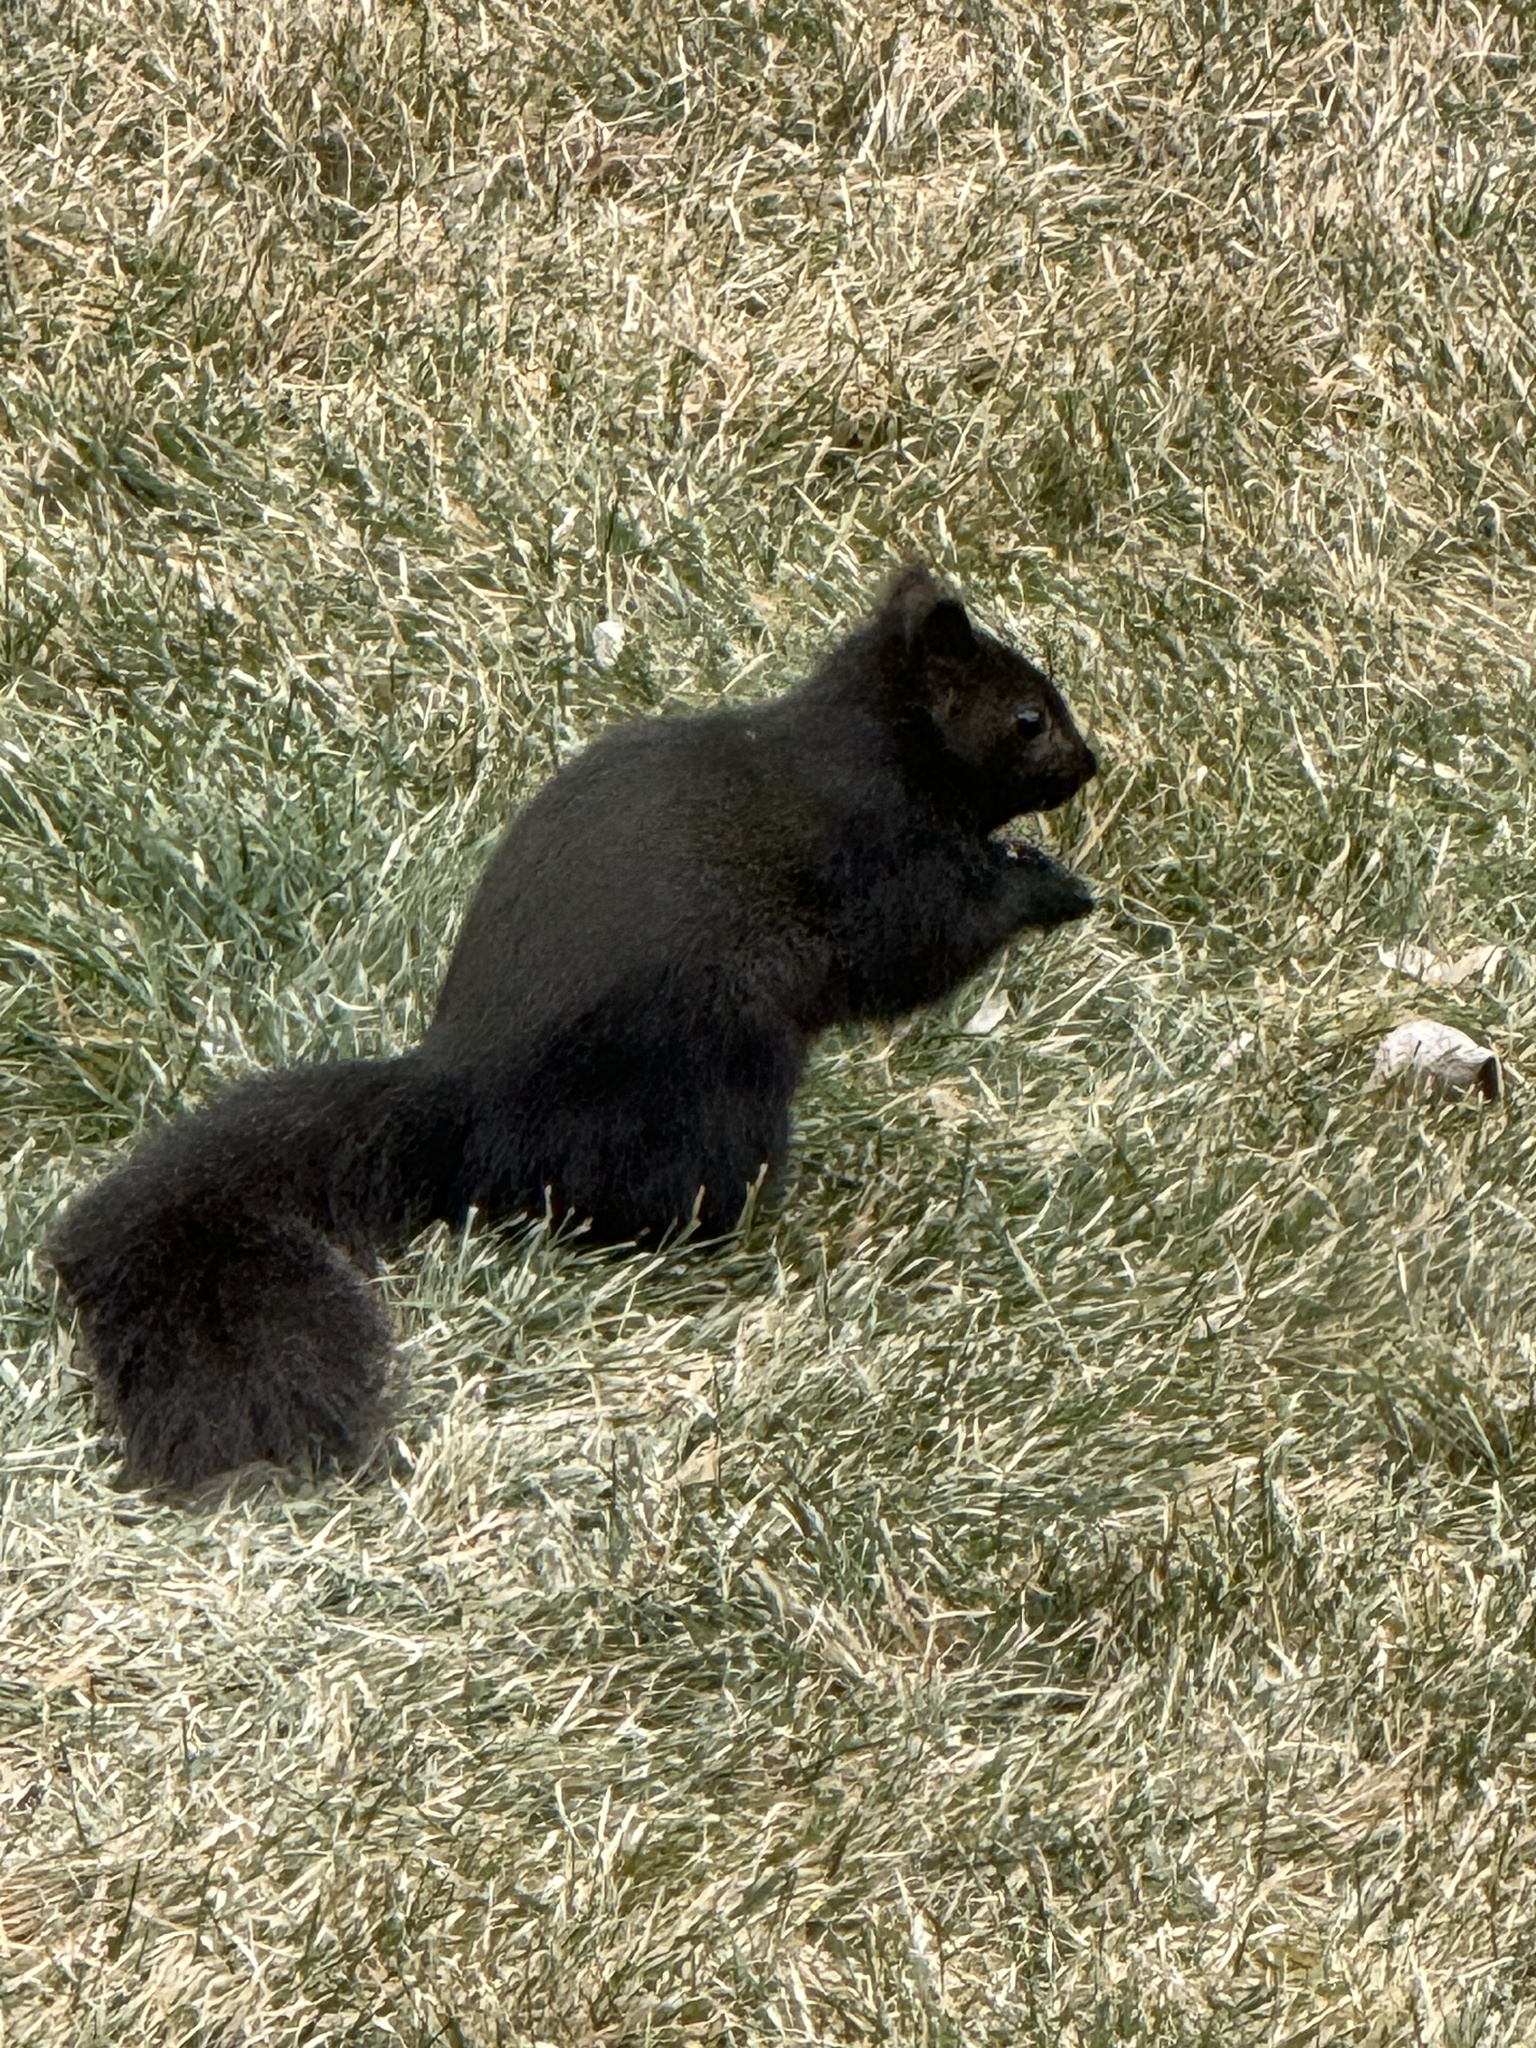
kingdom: Animalia
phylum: Chordata
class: Mammalia
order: Rodentia
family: Sciuridae
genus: Sciurus
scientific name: Sciurus carolinensis
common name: Eastern gray squirrel
